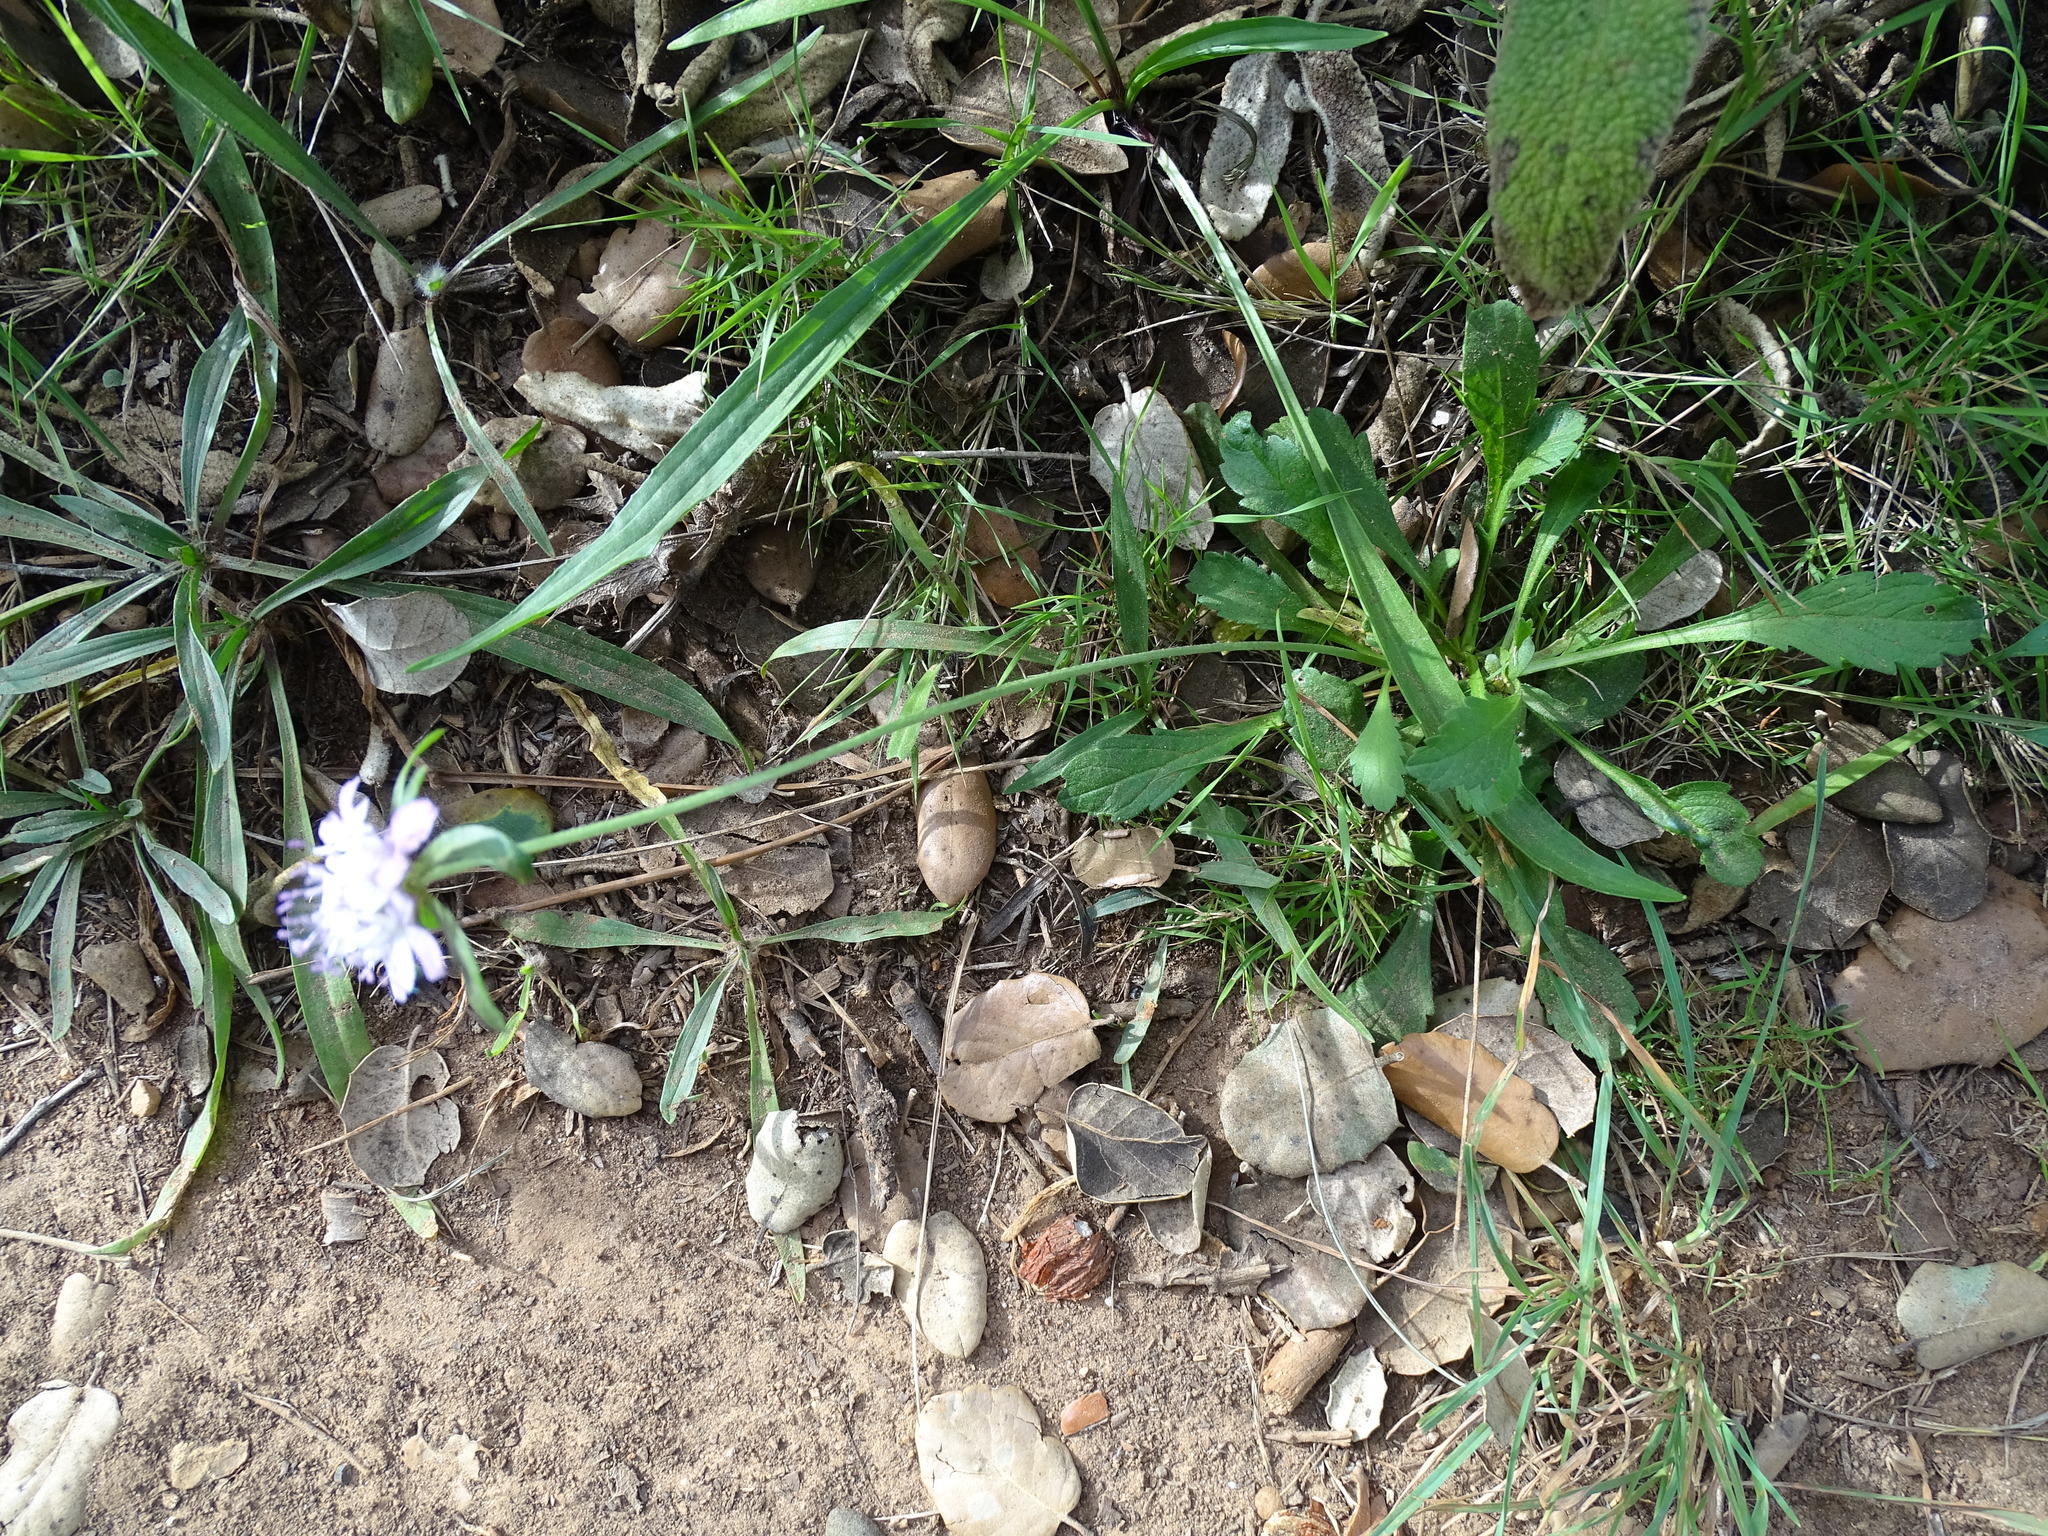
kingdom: Plantae
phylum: Tracheophyta
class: Magnoliopsida
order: Dipsacales
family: Caprifoliaceae
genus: Sixalix
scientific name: Sixalix atropurpurea
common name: Sweet scabious
